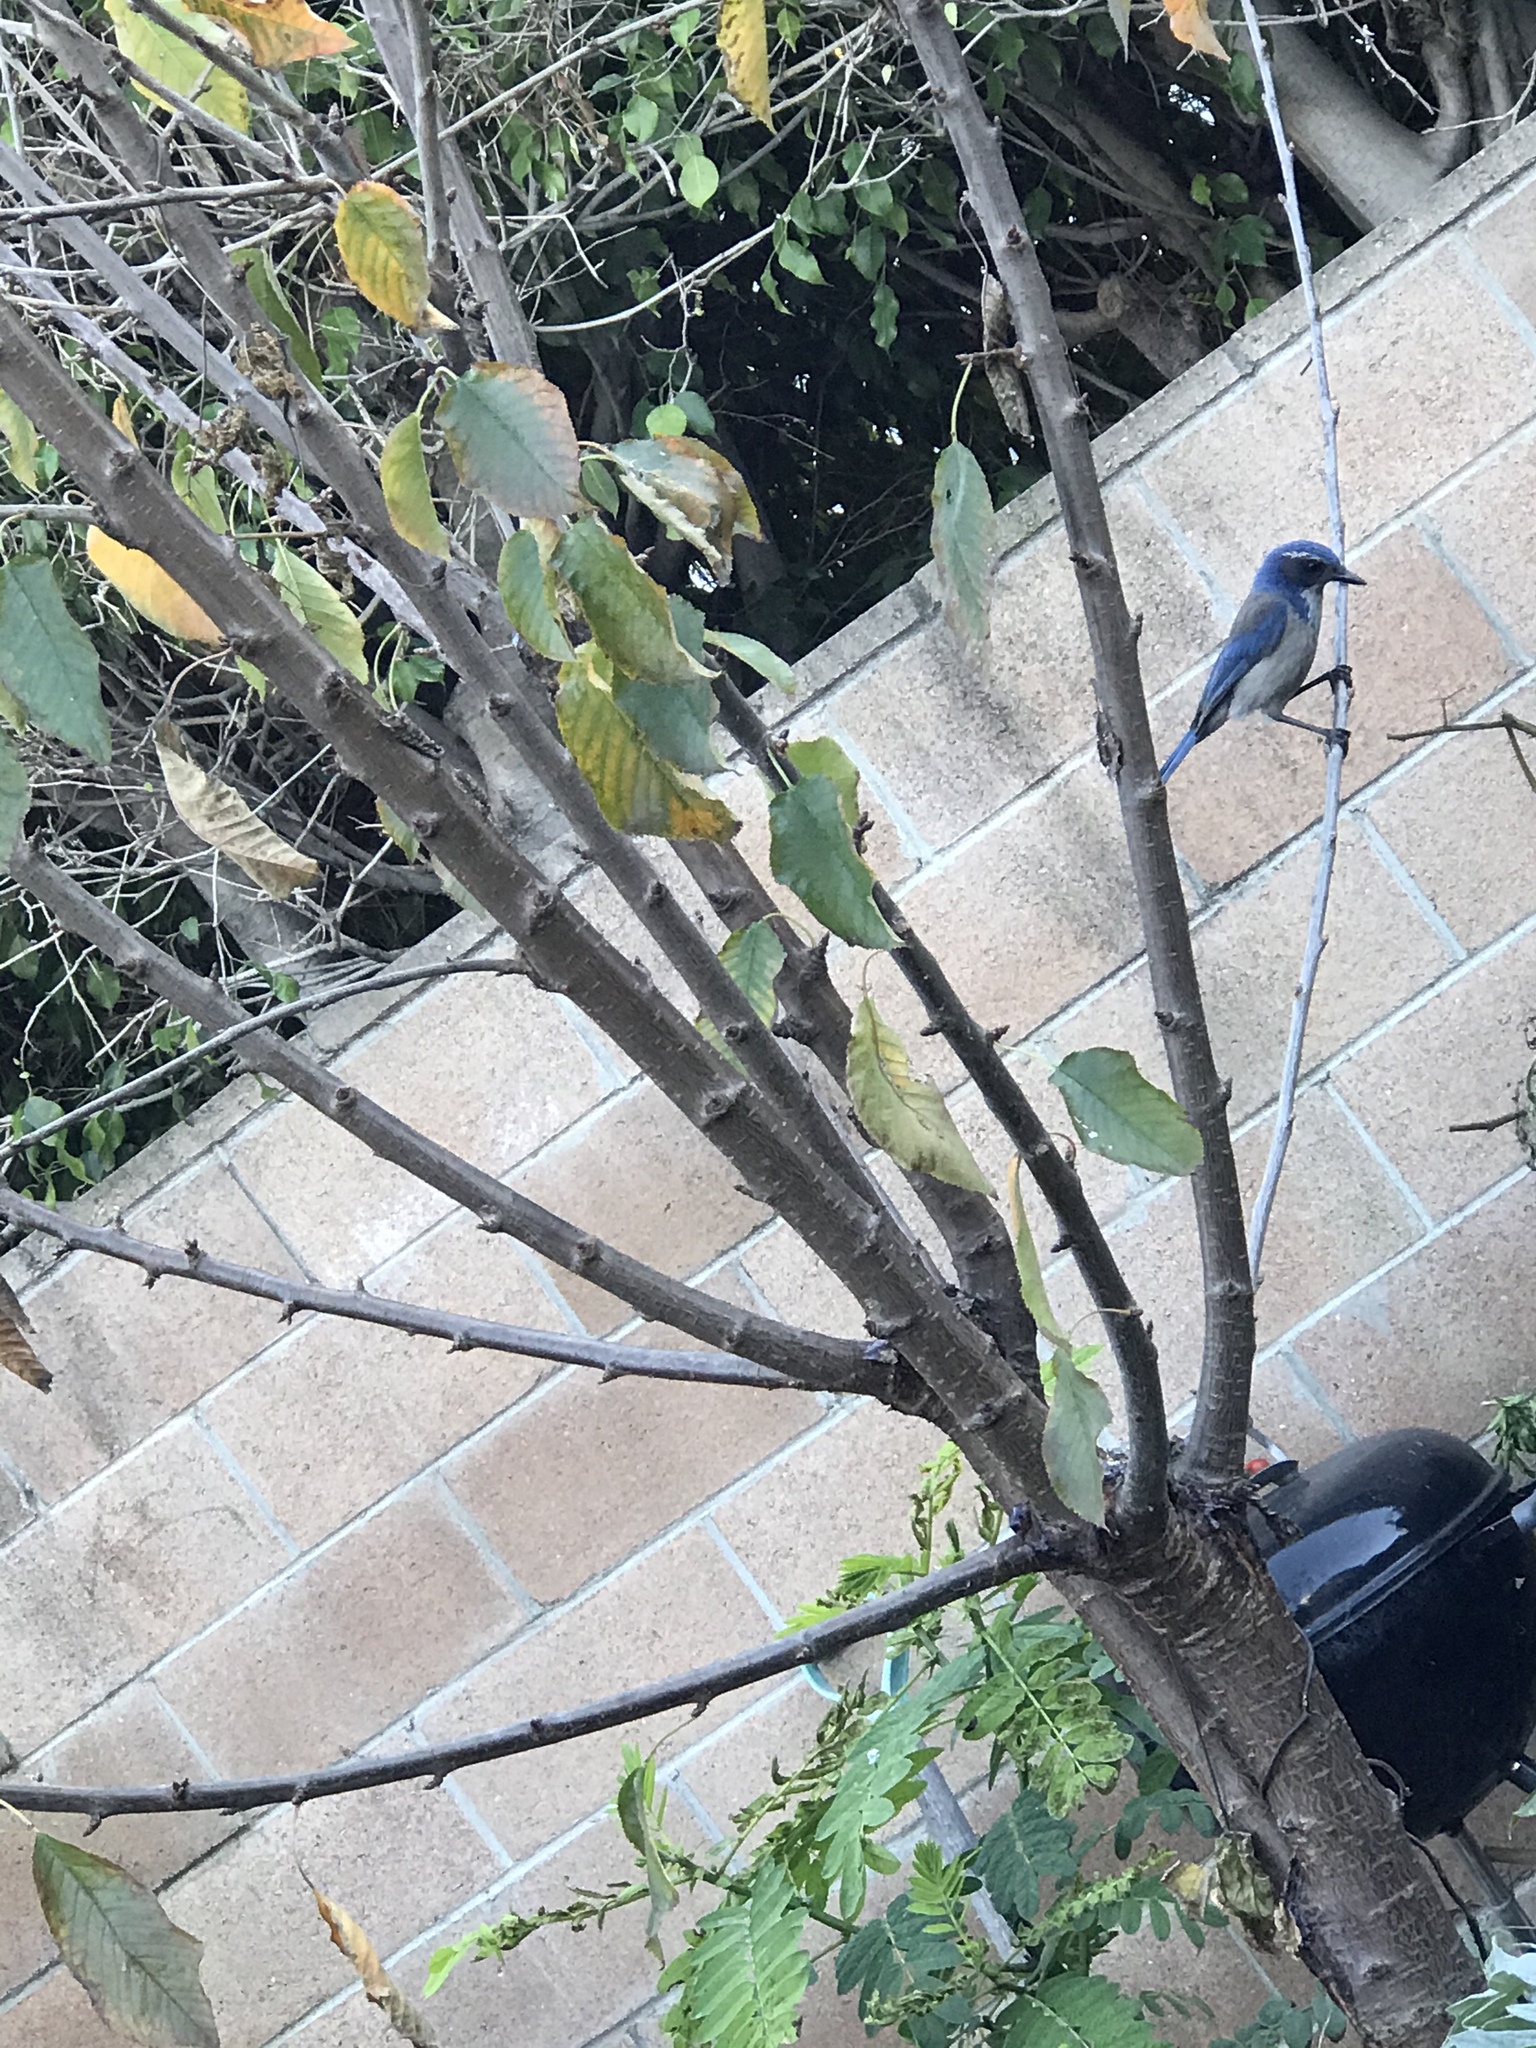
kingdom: Animalia
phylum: Chordata
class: Aves
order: Passeriformes
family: Corvidae
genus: Aphelocoma
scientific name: Aphelocoma californica
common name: California scrub-jay
